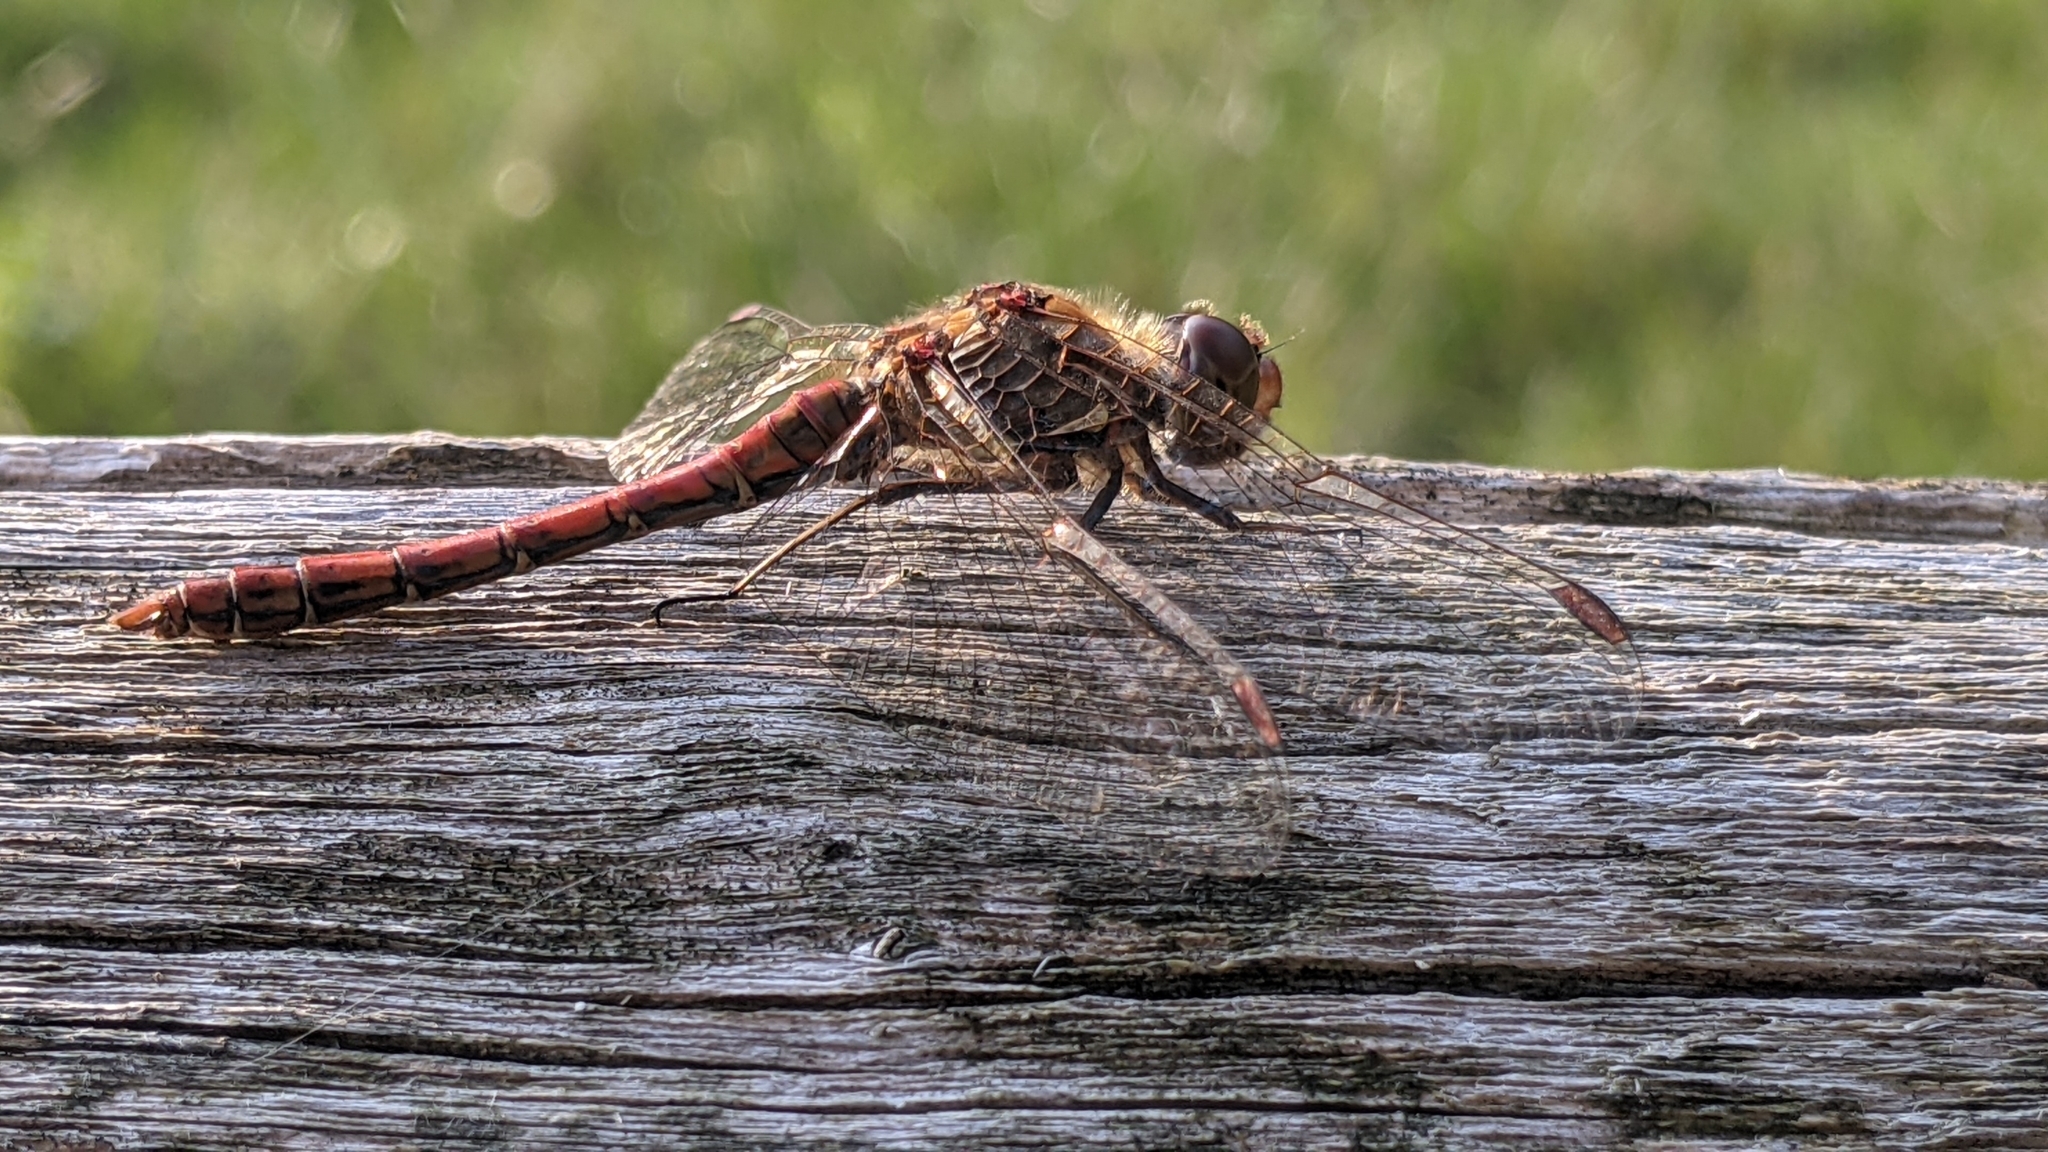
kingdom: Animalia
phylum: Arthropoda
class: Insecta
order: Odonata
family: Libellulidae
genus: Sympetrum
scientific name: Sympetrum striolatum
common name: Common darter
